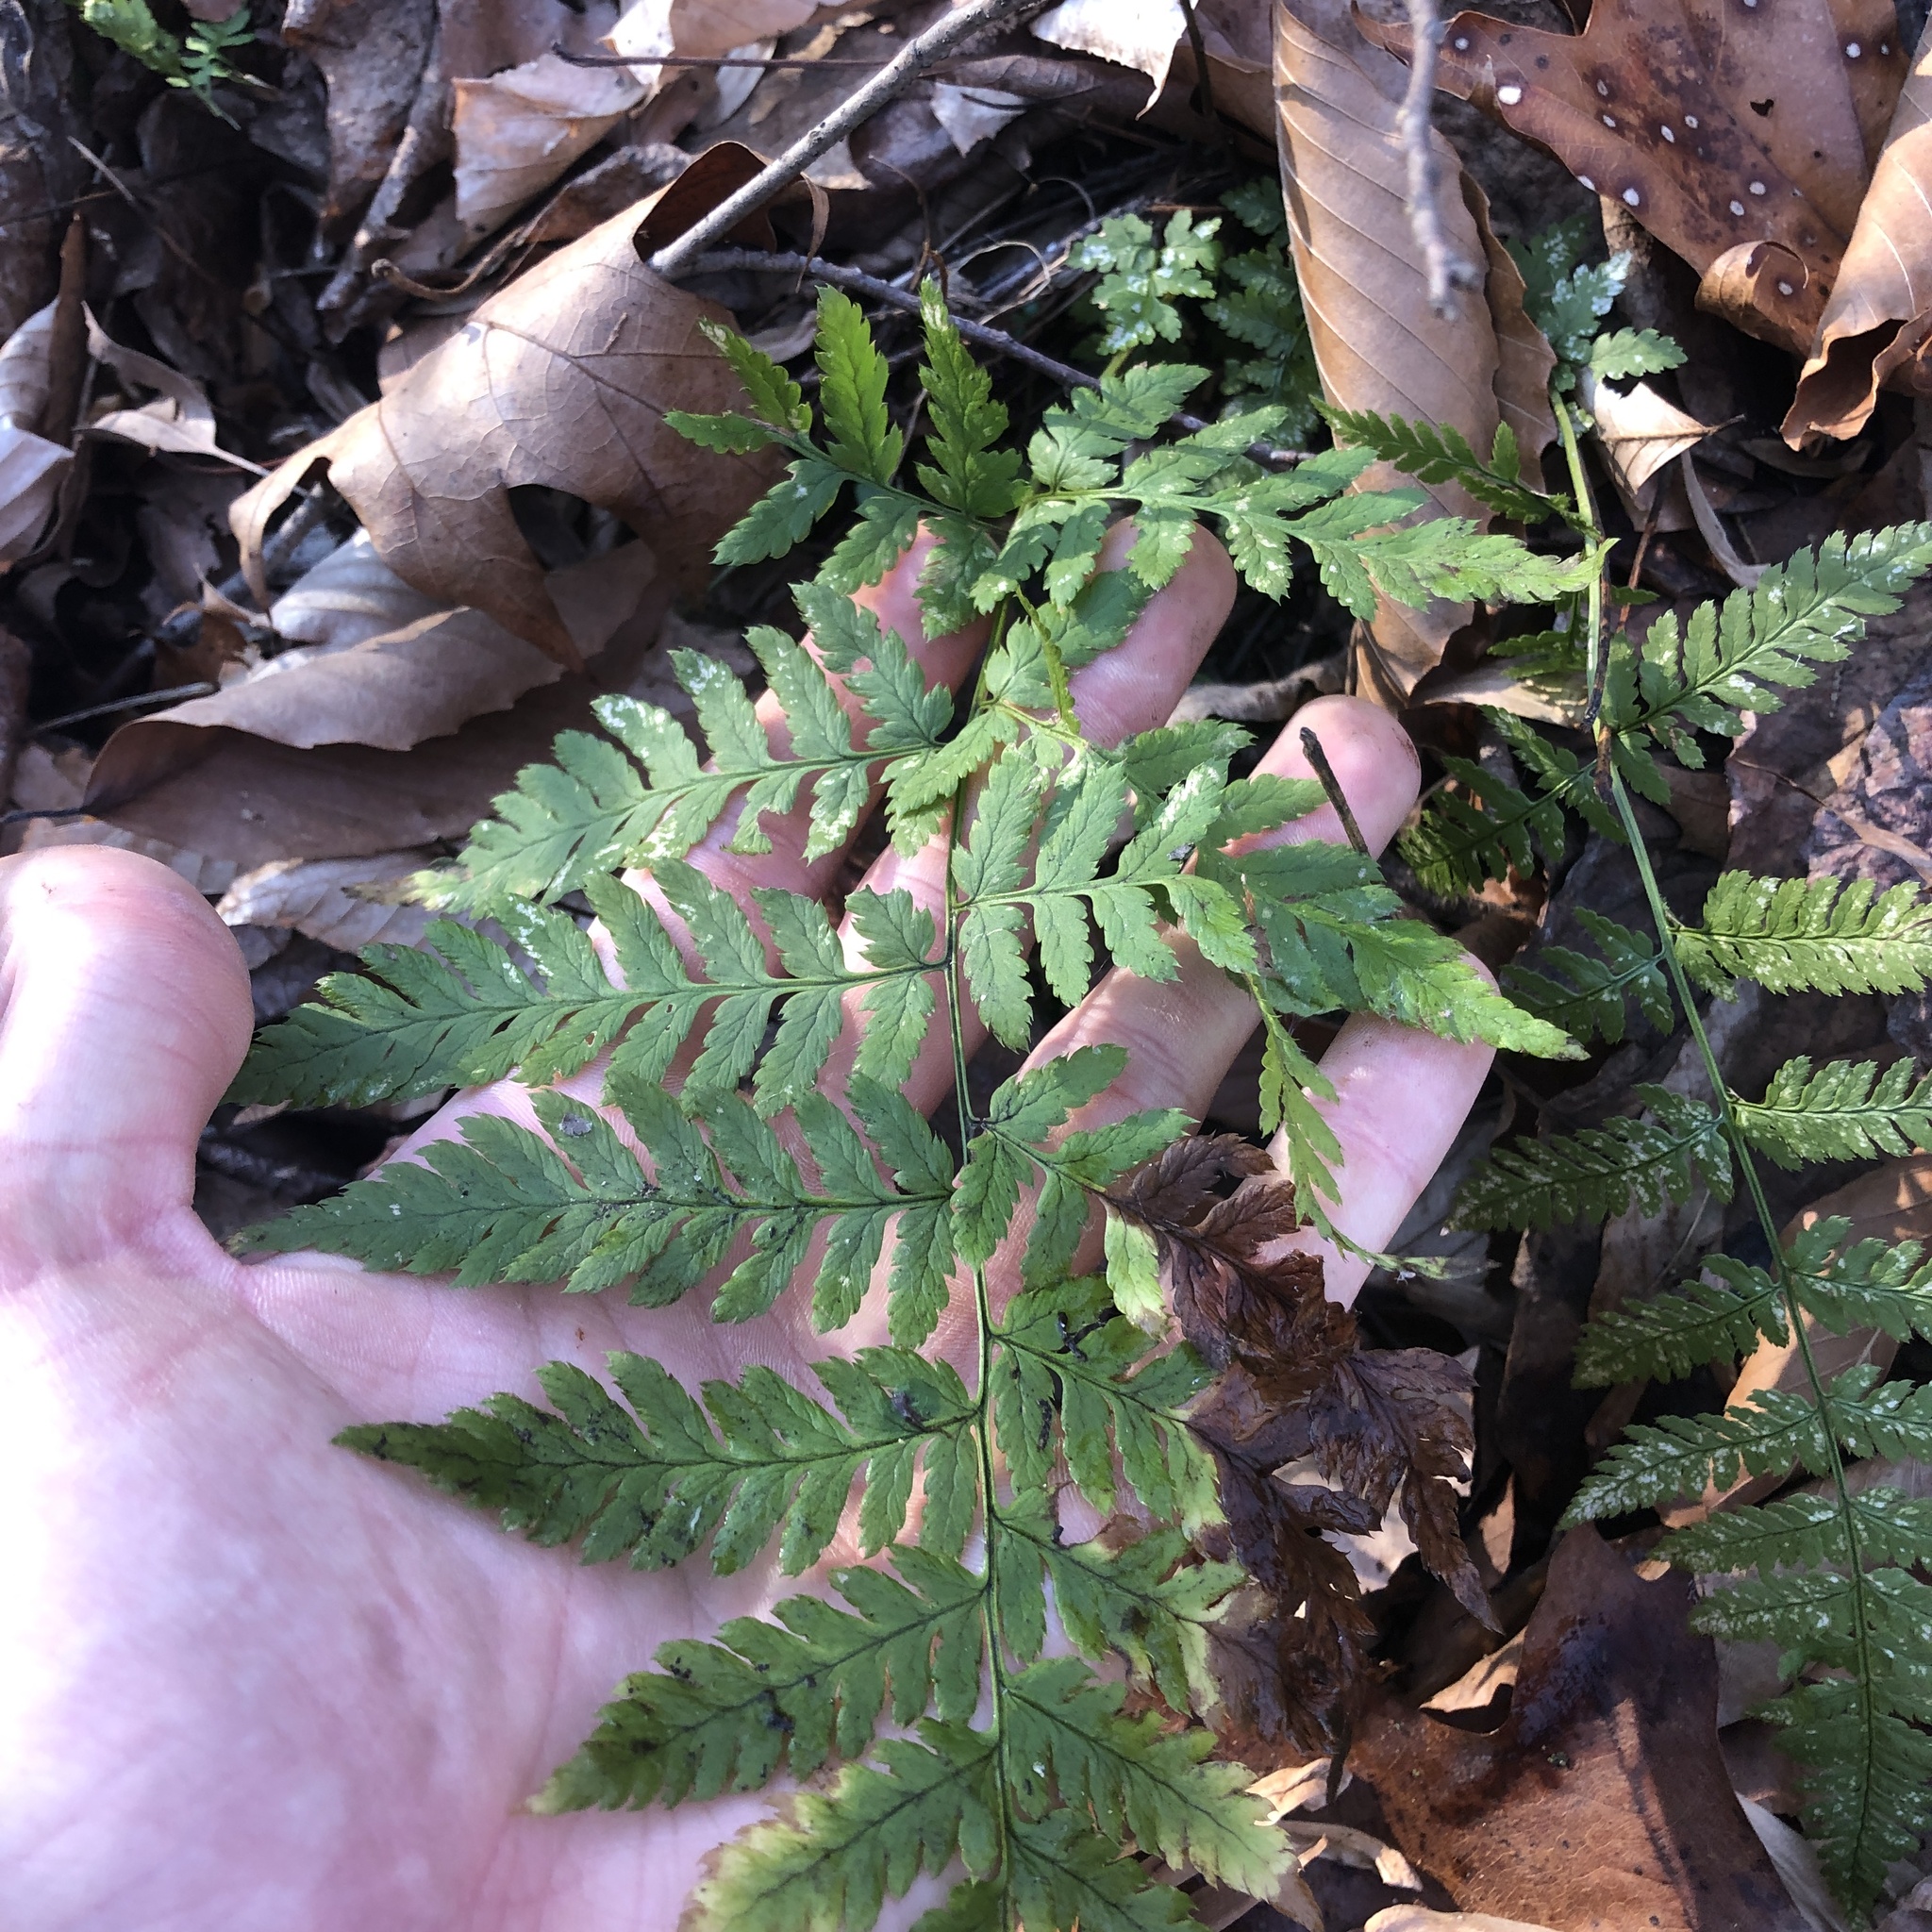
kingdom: Plantae
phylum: Tracheophyta
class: Polypodiopsida
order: Polypodiales
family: Dryopteridaceae
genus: Dryopteris
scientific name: Dryopteris carthusiana
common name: Narrow buckler-fern
